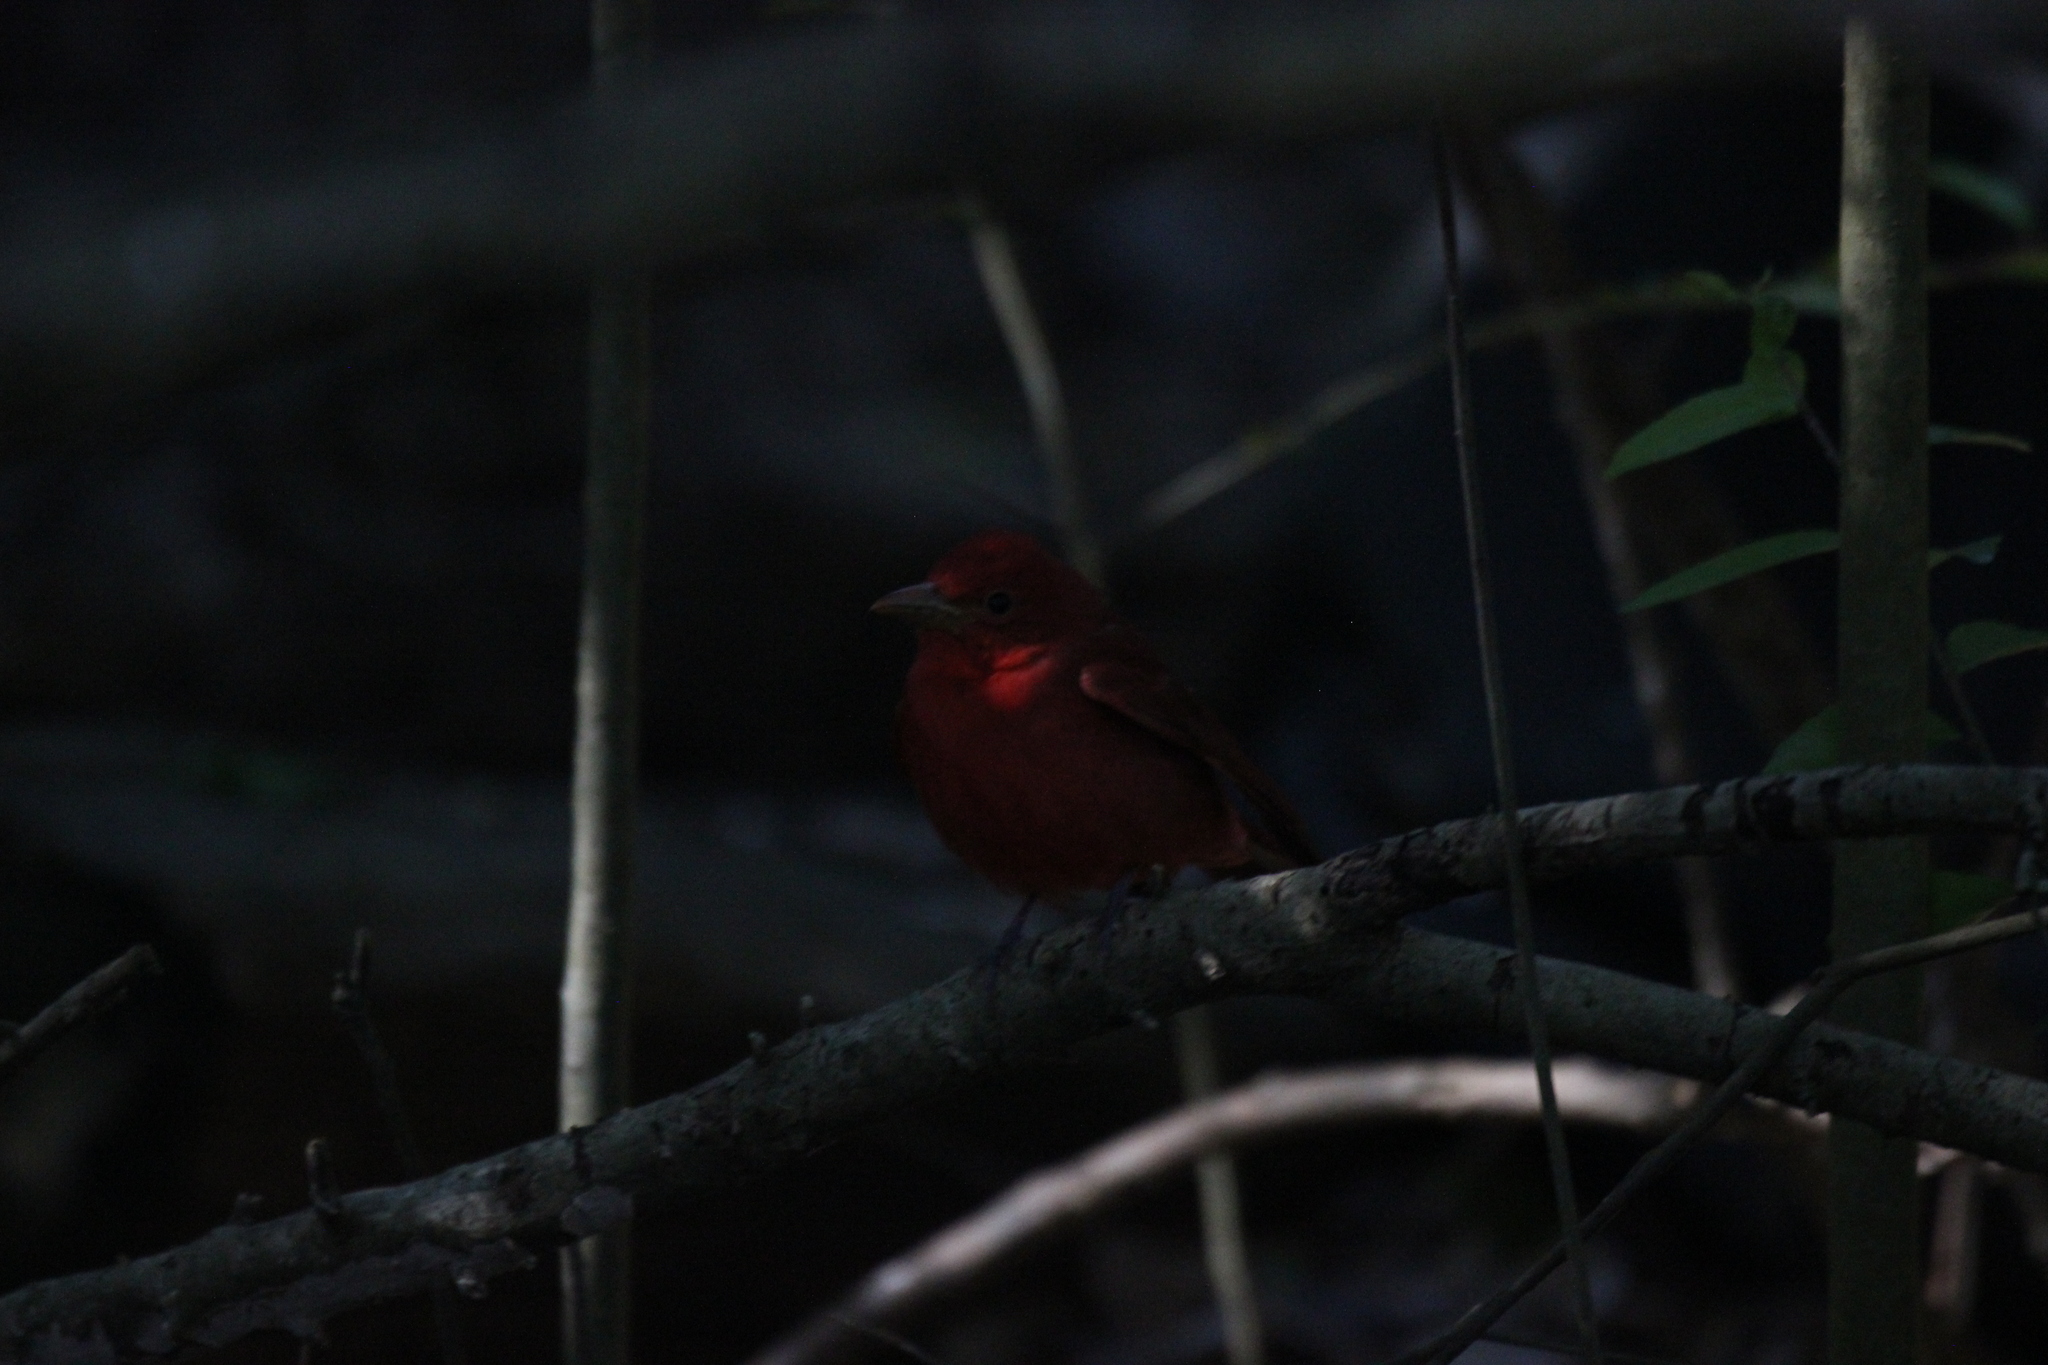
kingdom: Animalia
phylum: Chordata
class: Aves
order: Passeriformes
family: Cardinalidae
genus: Piranga
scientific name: Piranga rubra
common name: Summer tanager
